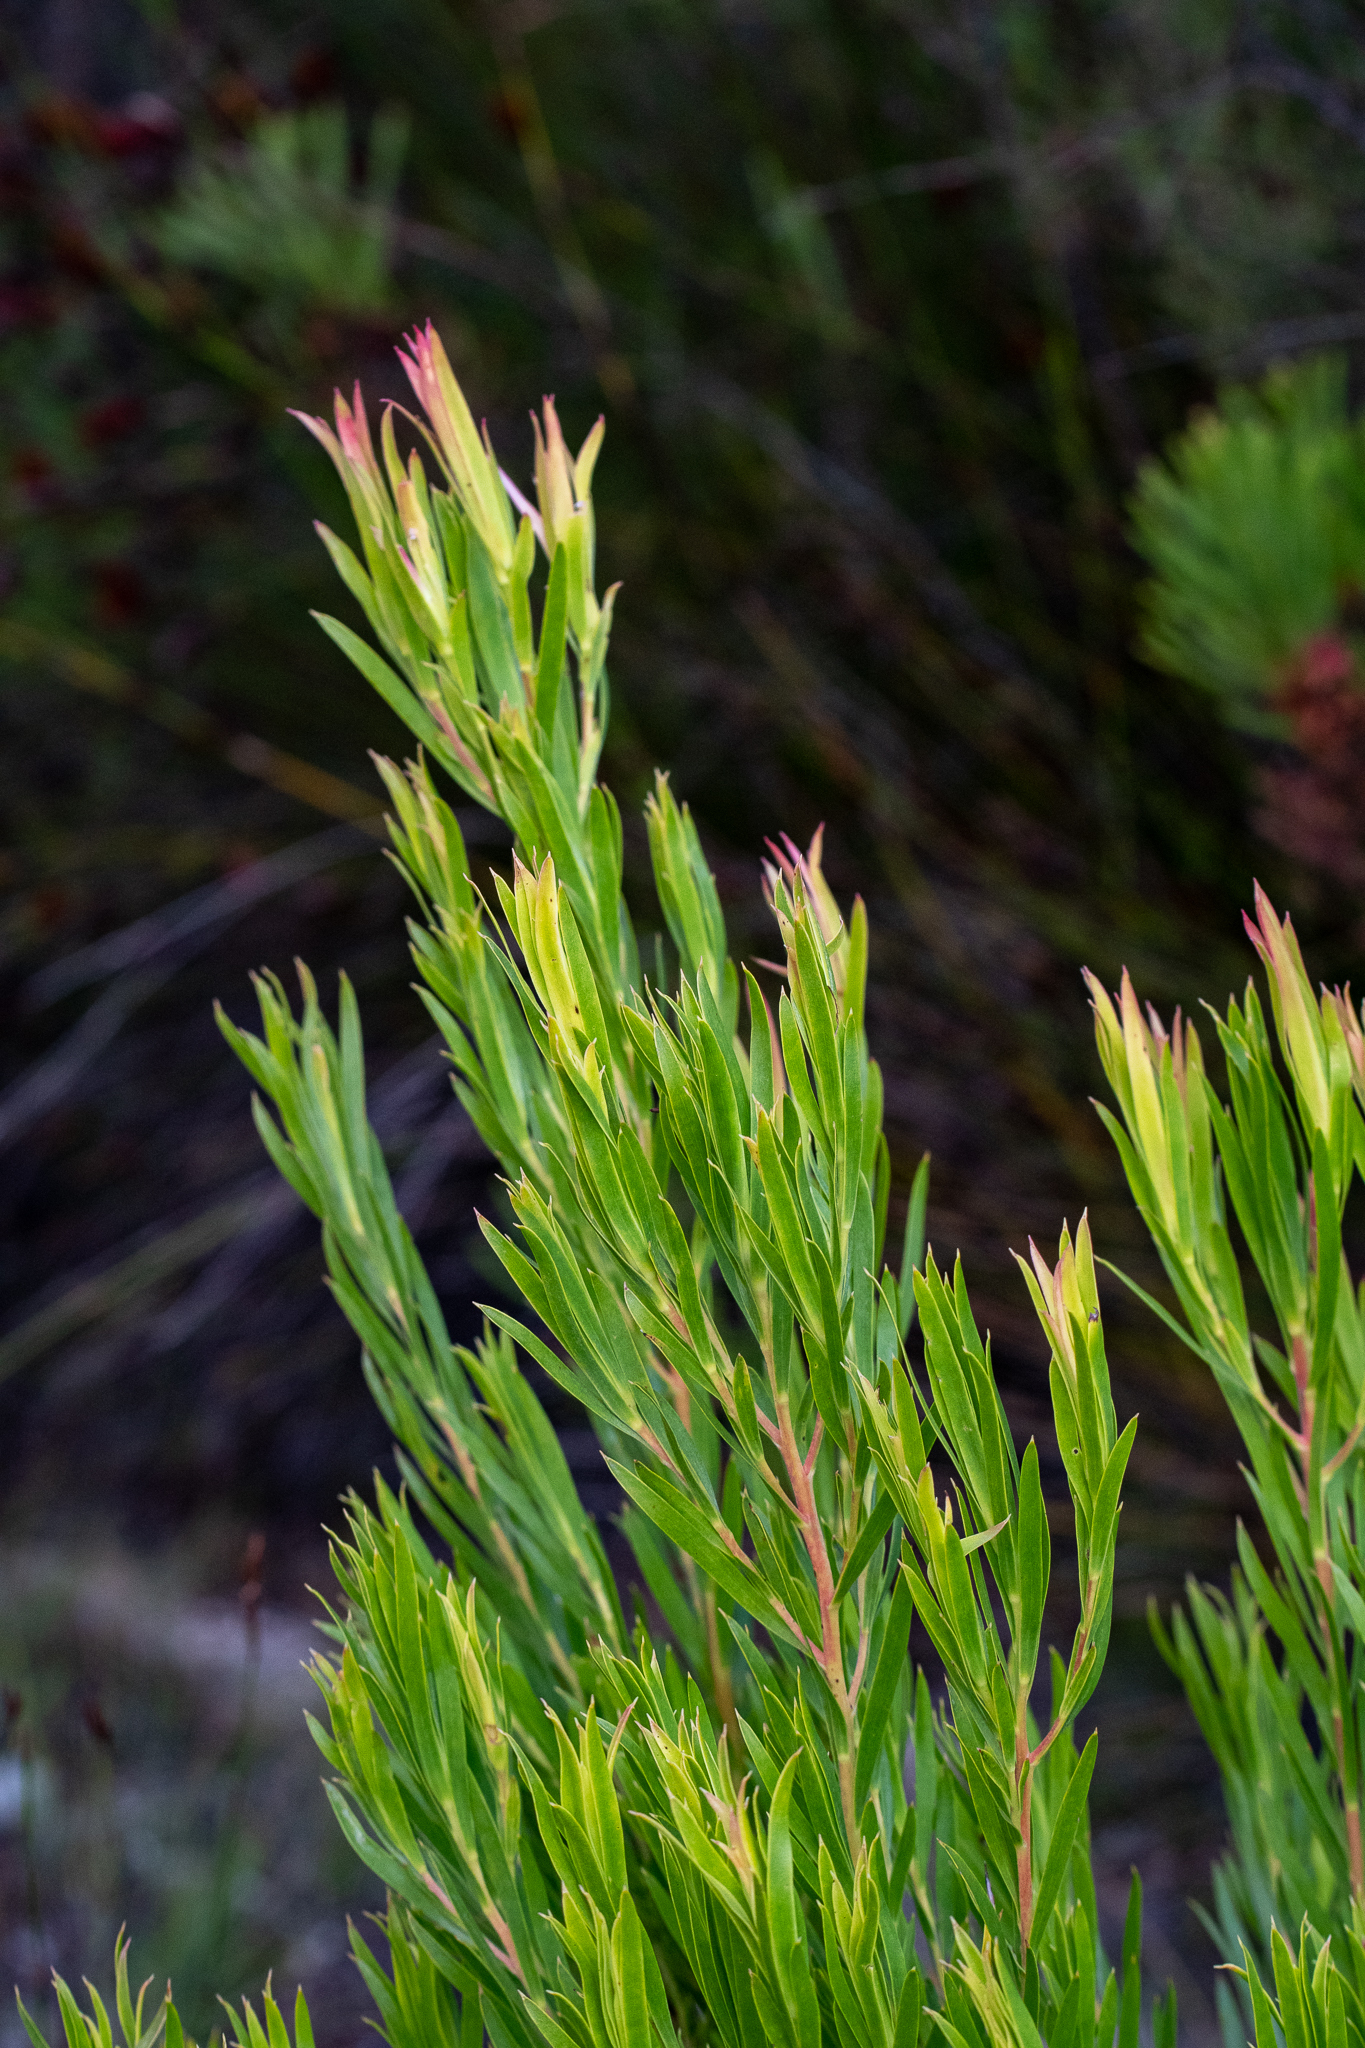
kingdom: Plantae
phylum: Tracheophyta
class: Magnoliopsida
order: Proteales
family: Proteaceae
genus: Leucadendron
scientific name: Leucadendron xanthoconus
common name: Sickle-leaf conebush
